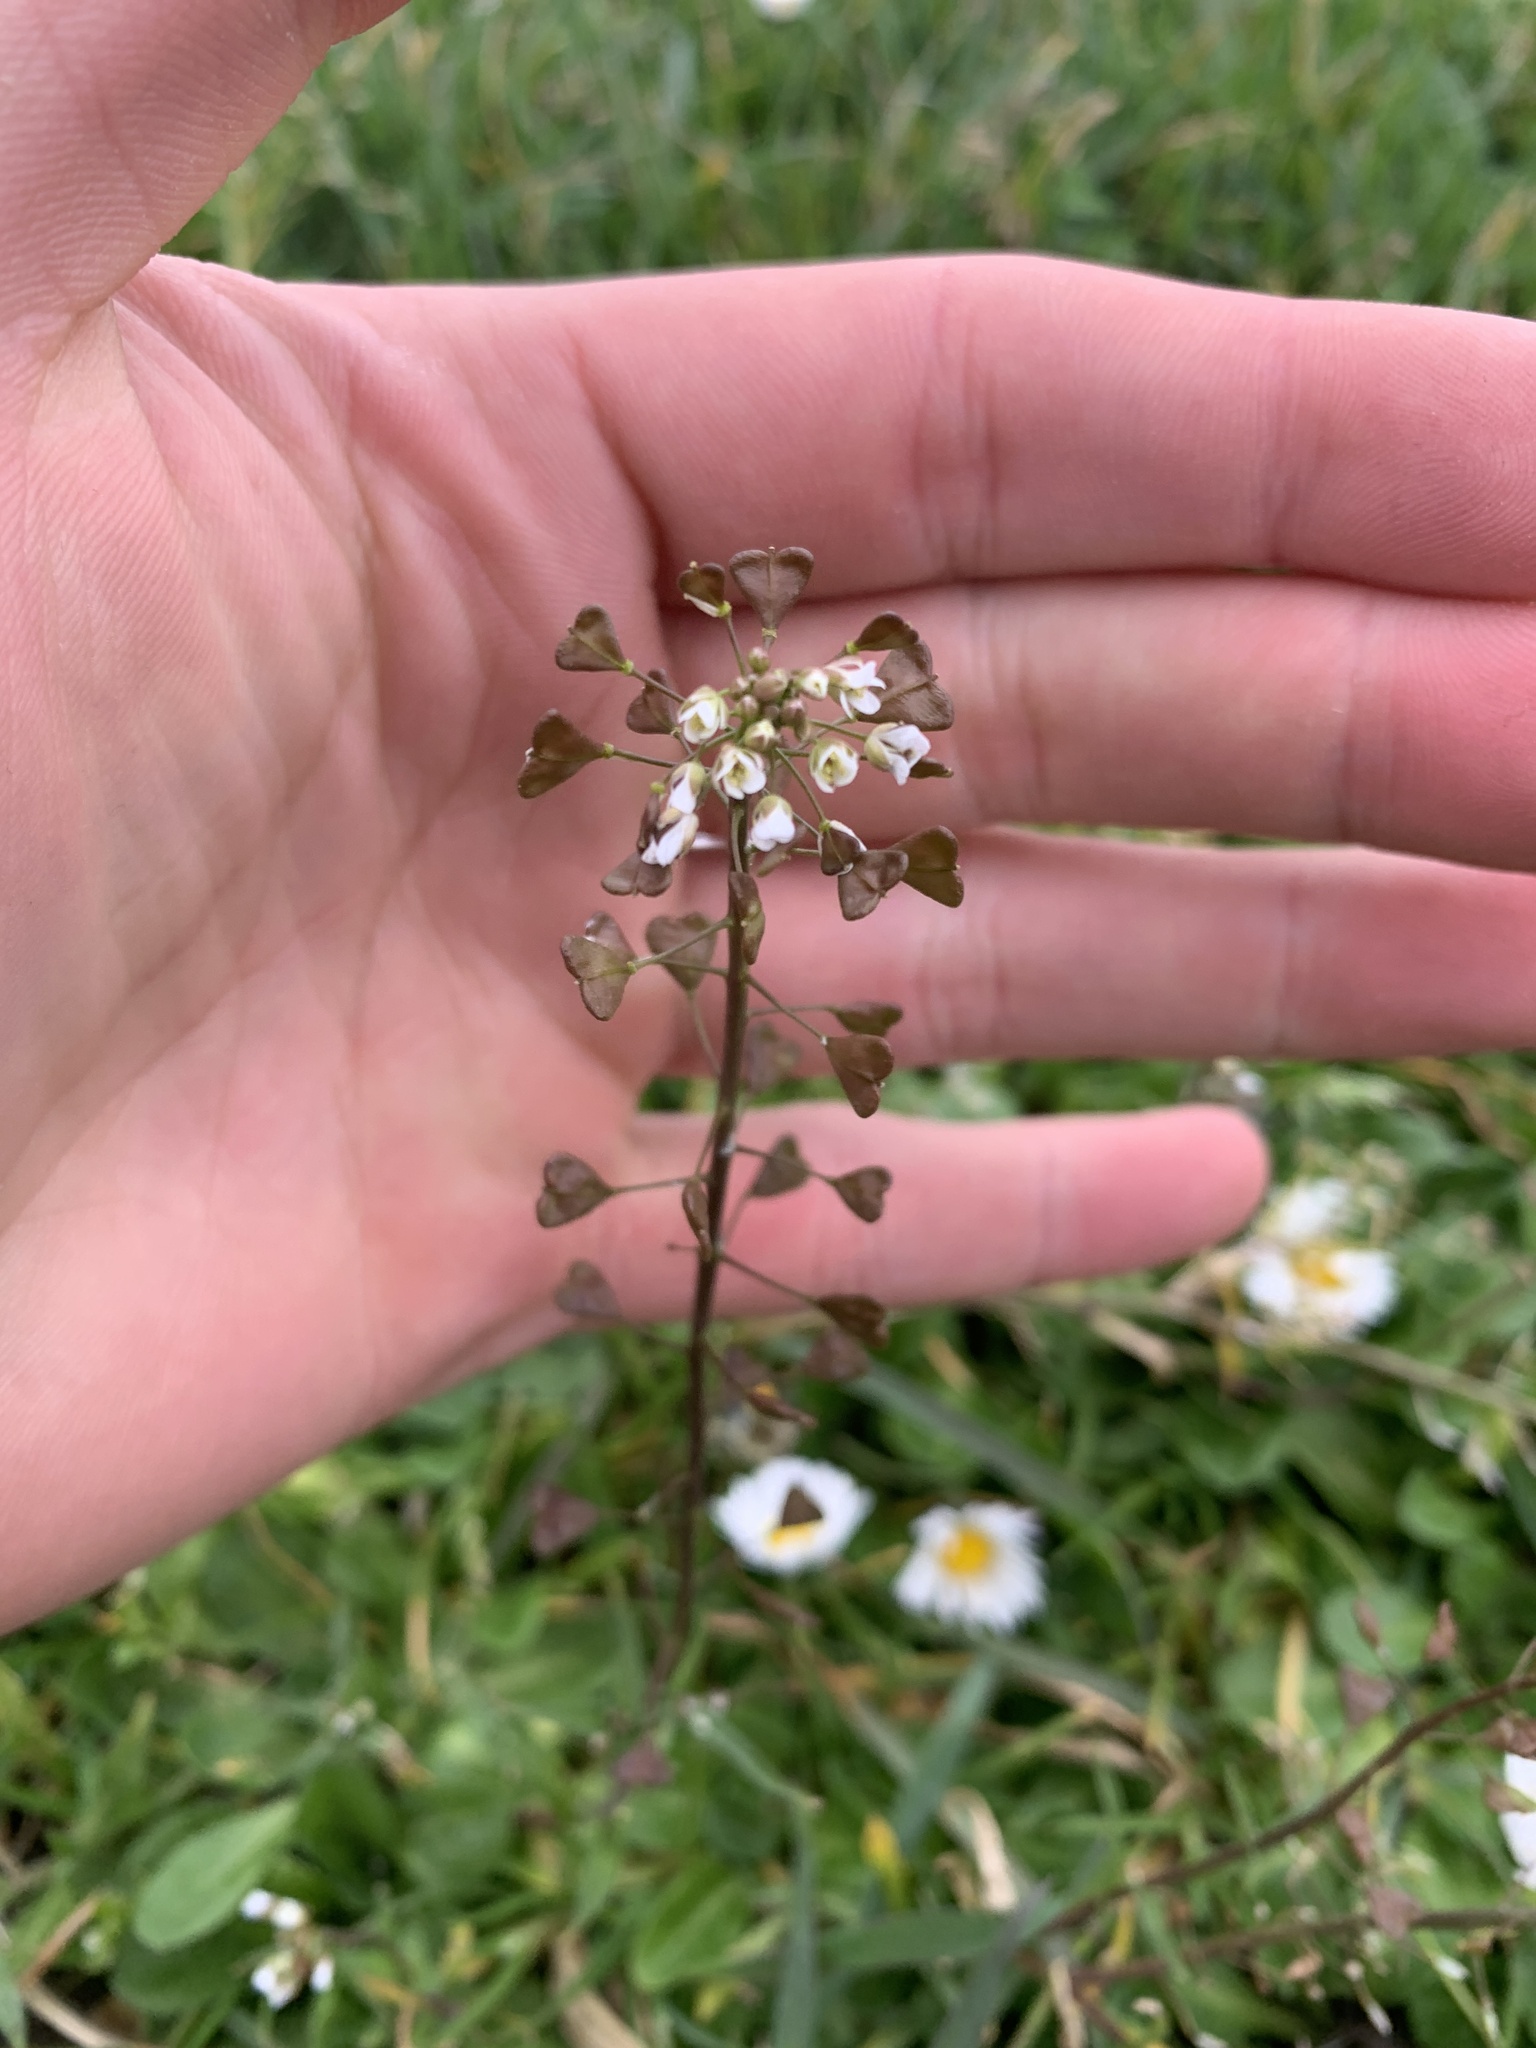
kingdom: Plantae
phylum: Tracheophyta
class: Magnoliopsida
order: Brassicales
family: Brassicaceae
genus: Capsella
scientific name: Capsella bursa-pastoris
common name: Shepherd's purse
